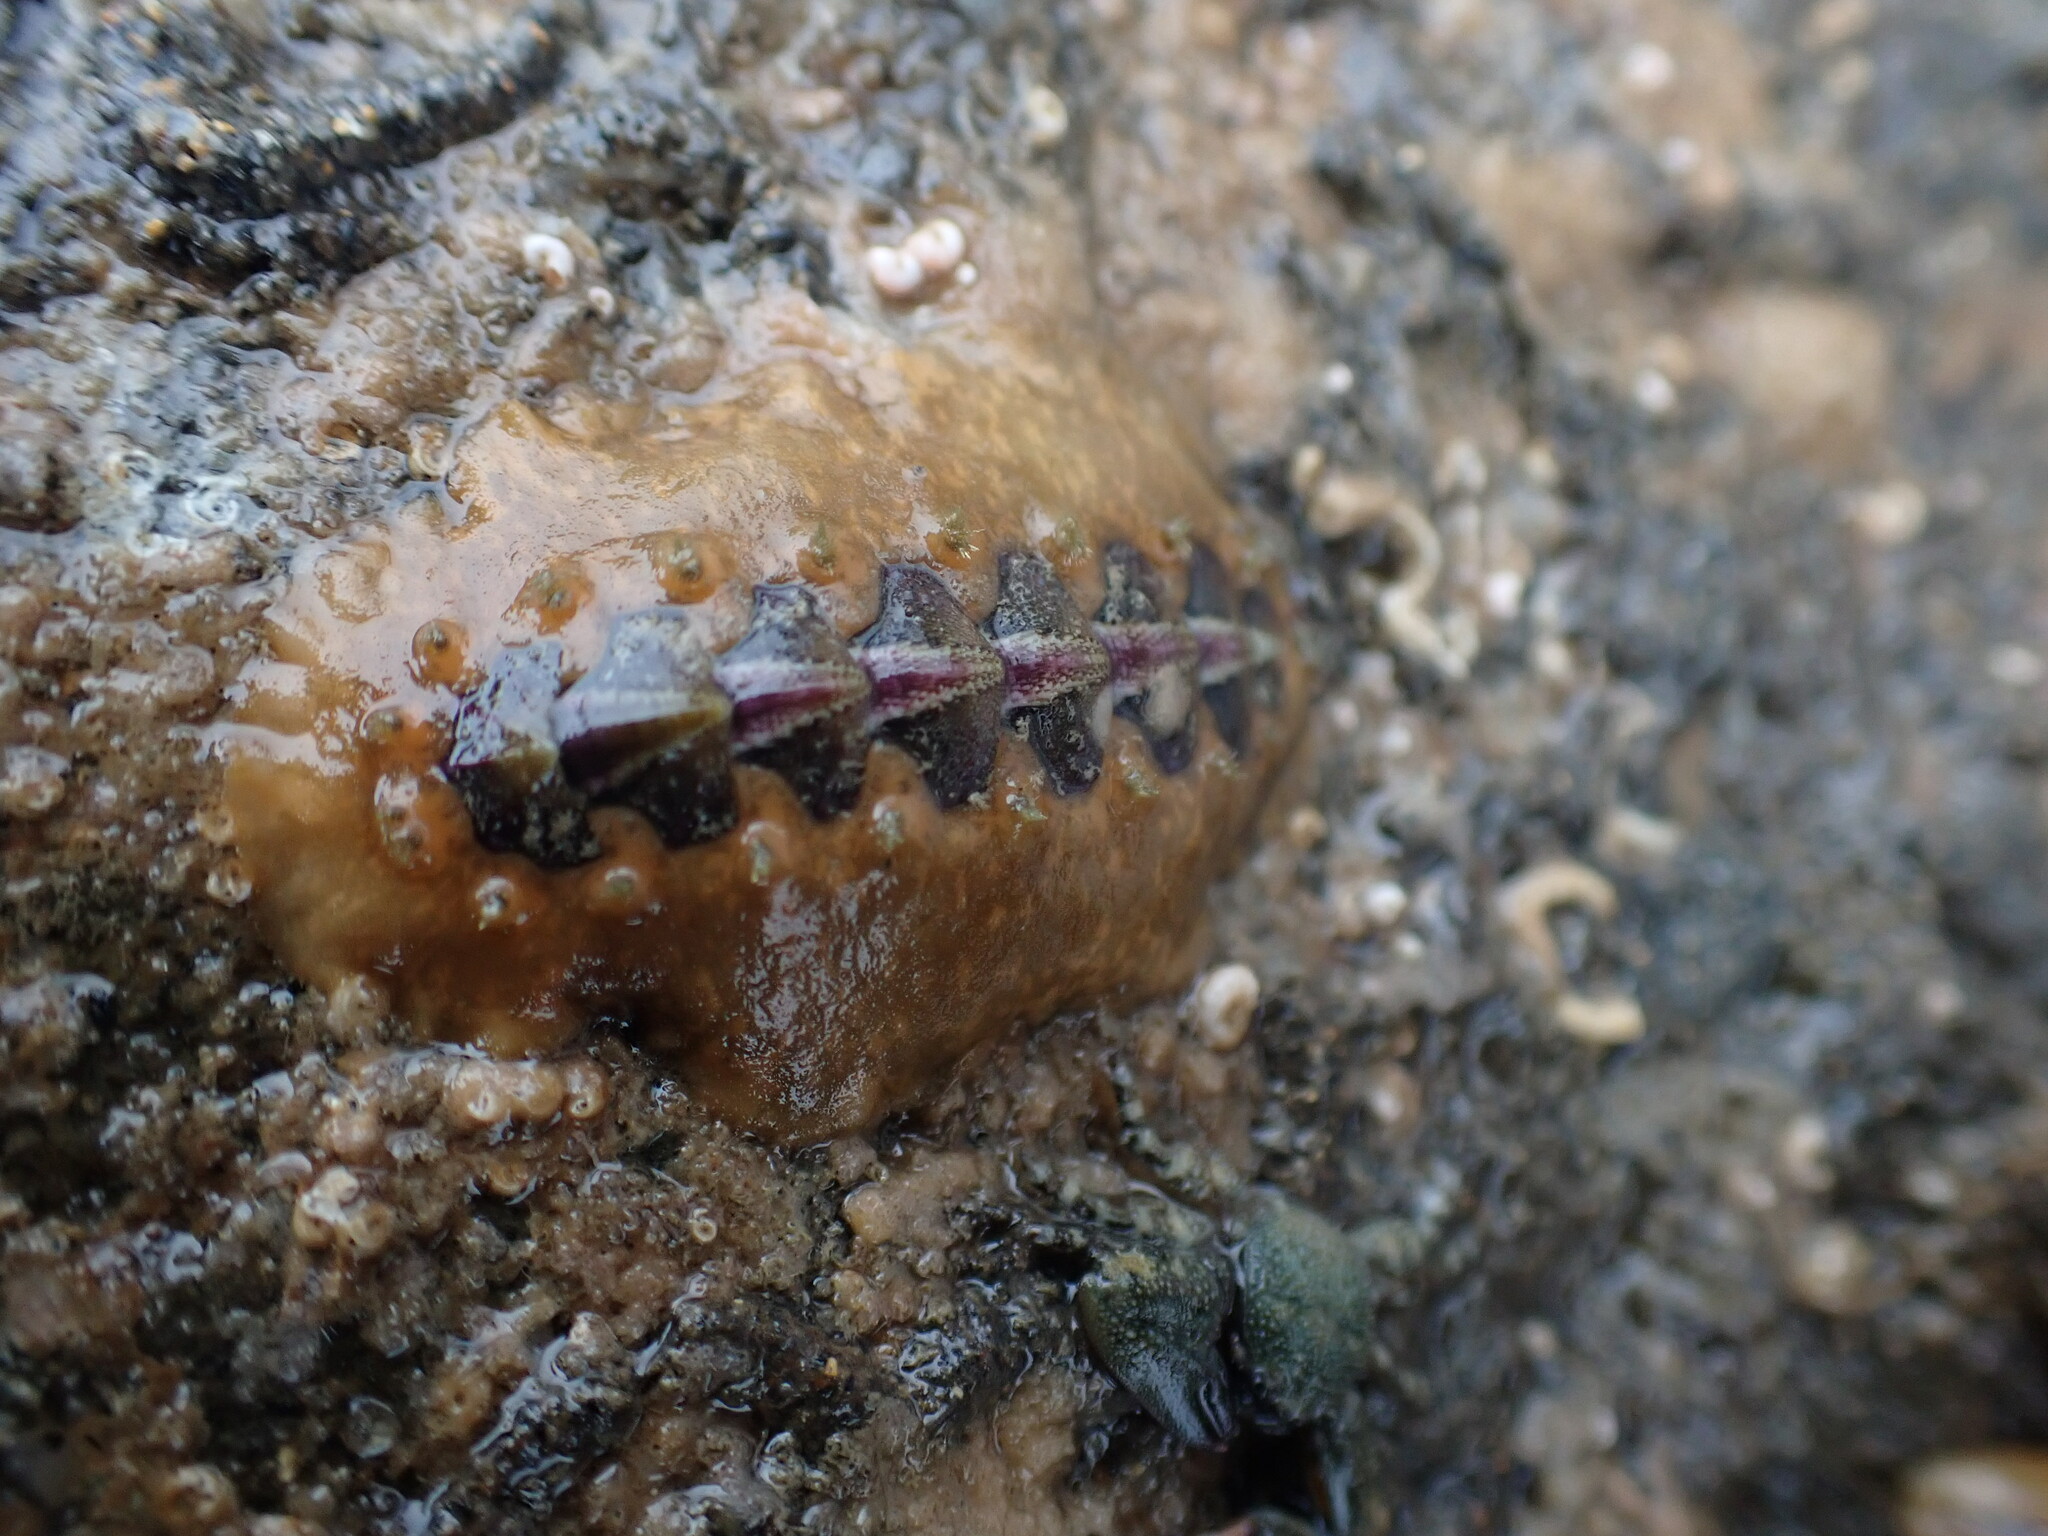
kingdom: Animalia
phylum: Mollusca
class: Polyplacophora
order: Chitonida
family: Acanthochitonidae
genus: Notoplax
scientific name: Notoplax violacea
